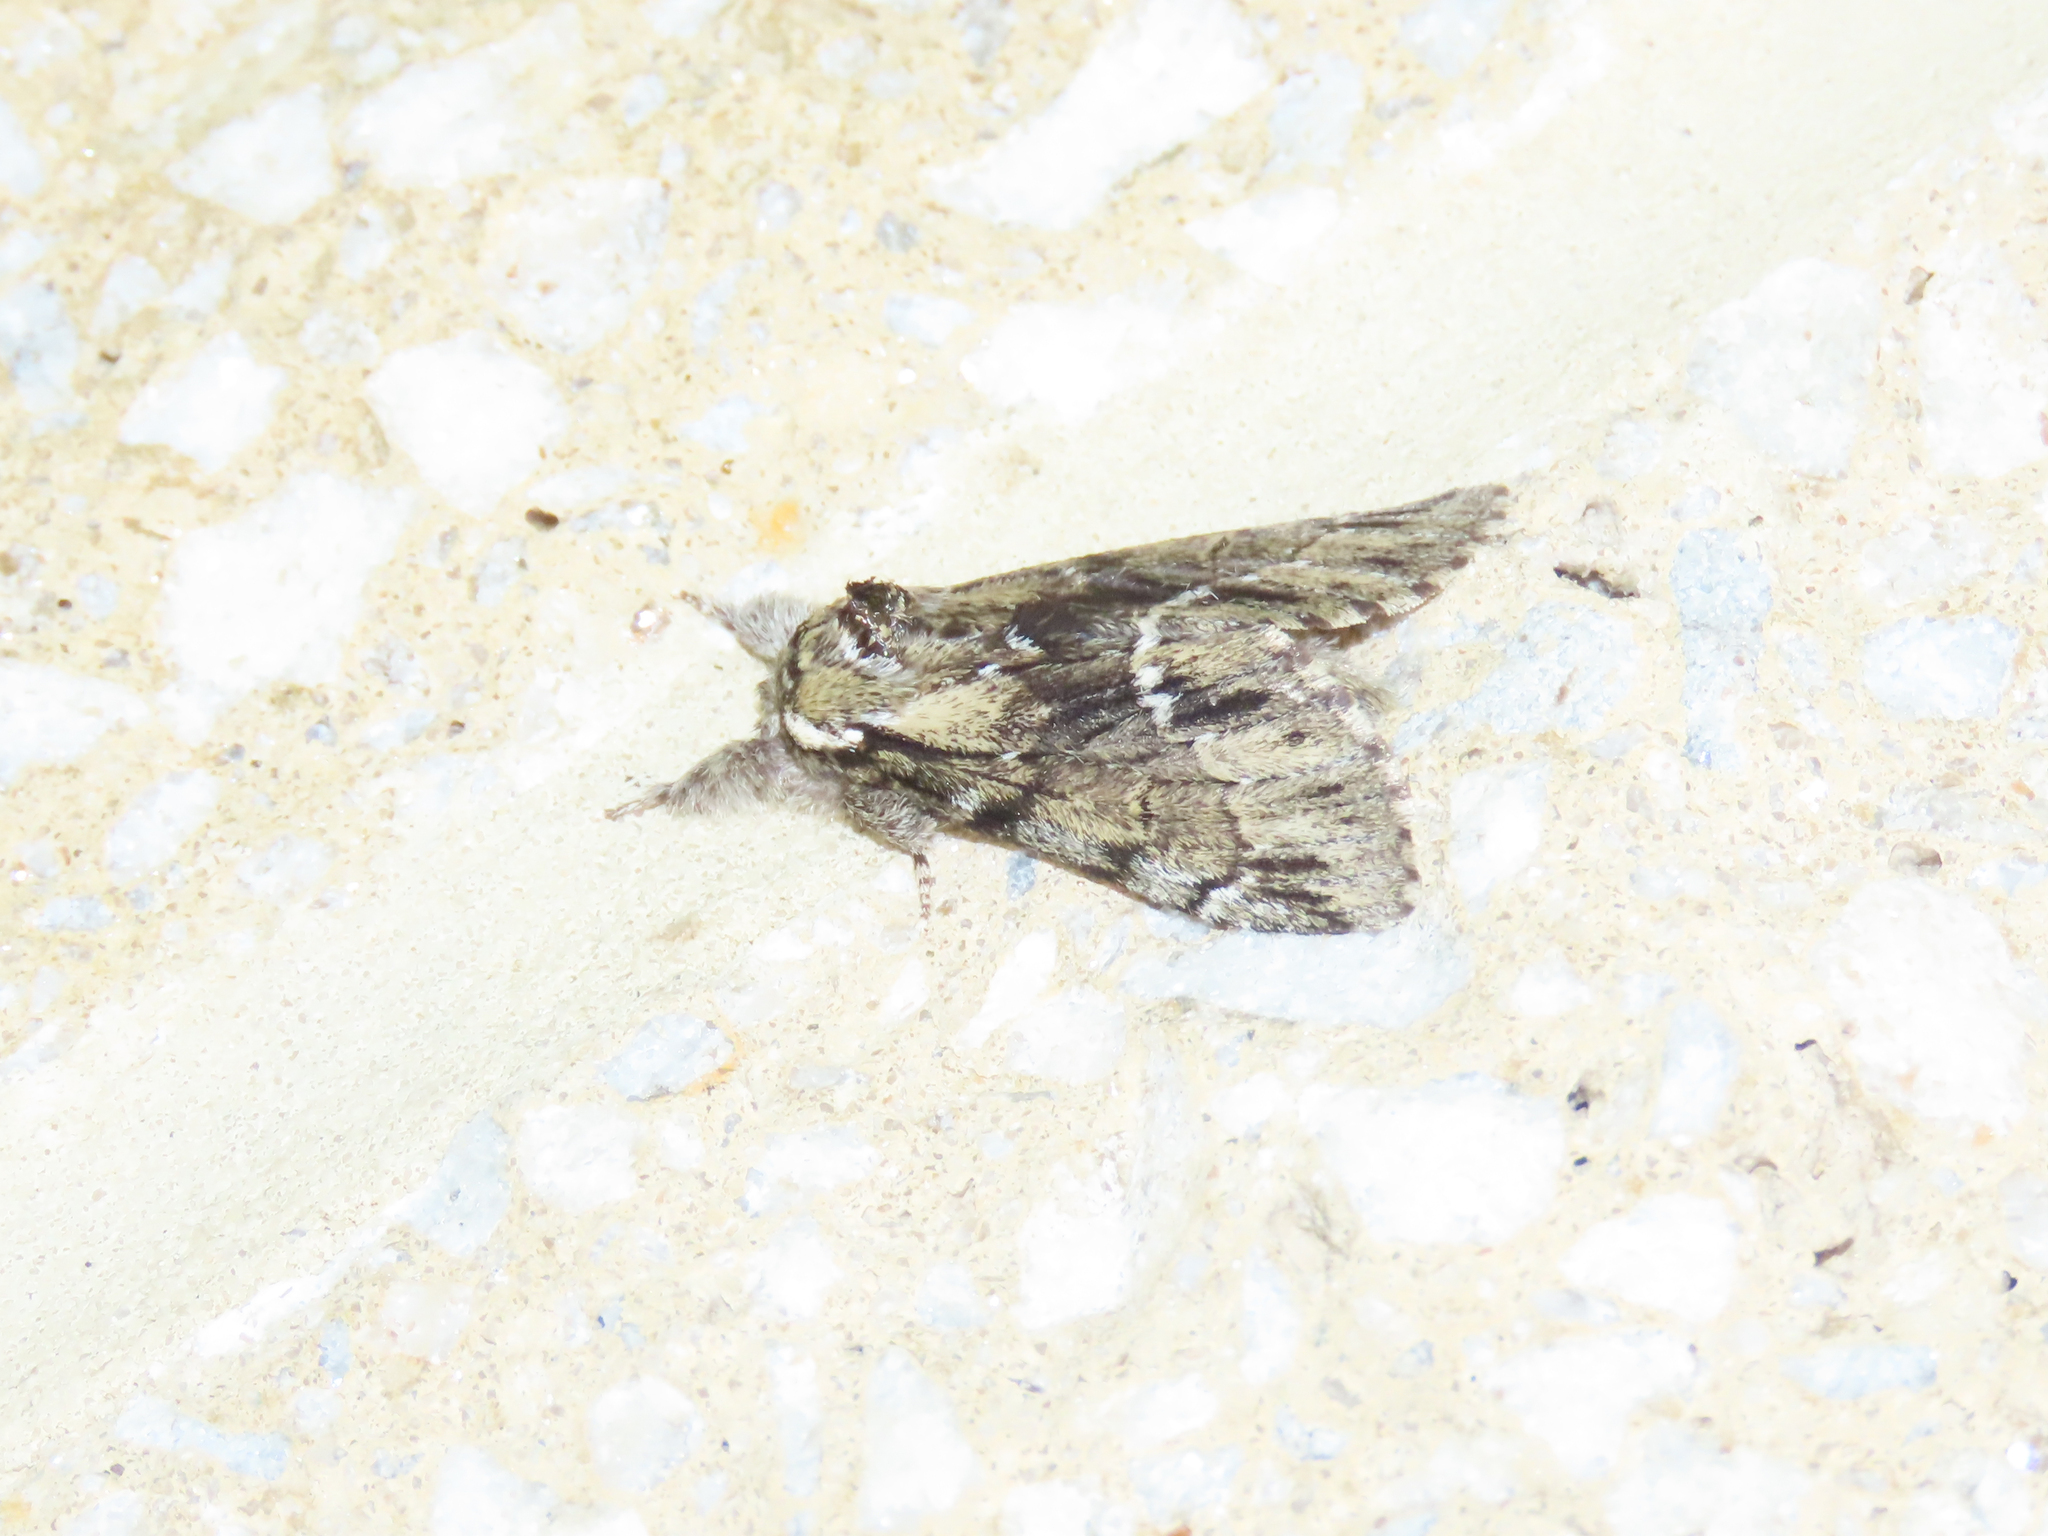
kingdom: Animalia
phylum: Arthropoda
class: Insecta
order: Lepidoptera
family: Notodontidae
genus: Paraeschra
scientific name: Paraeschra georgica
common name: Georgian prominent
